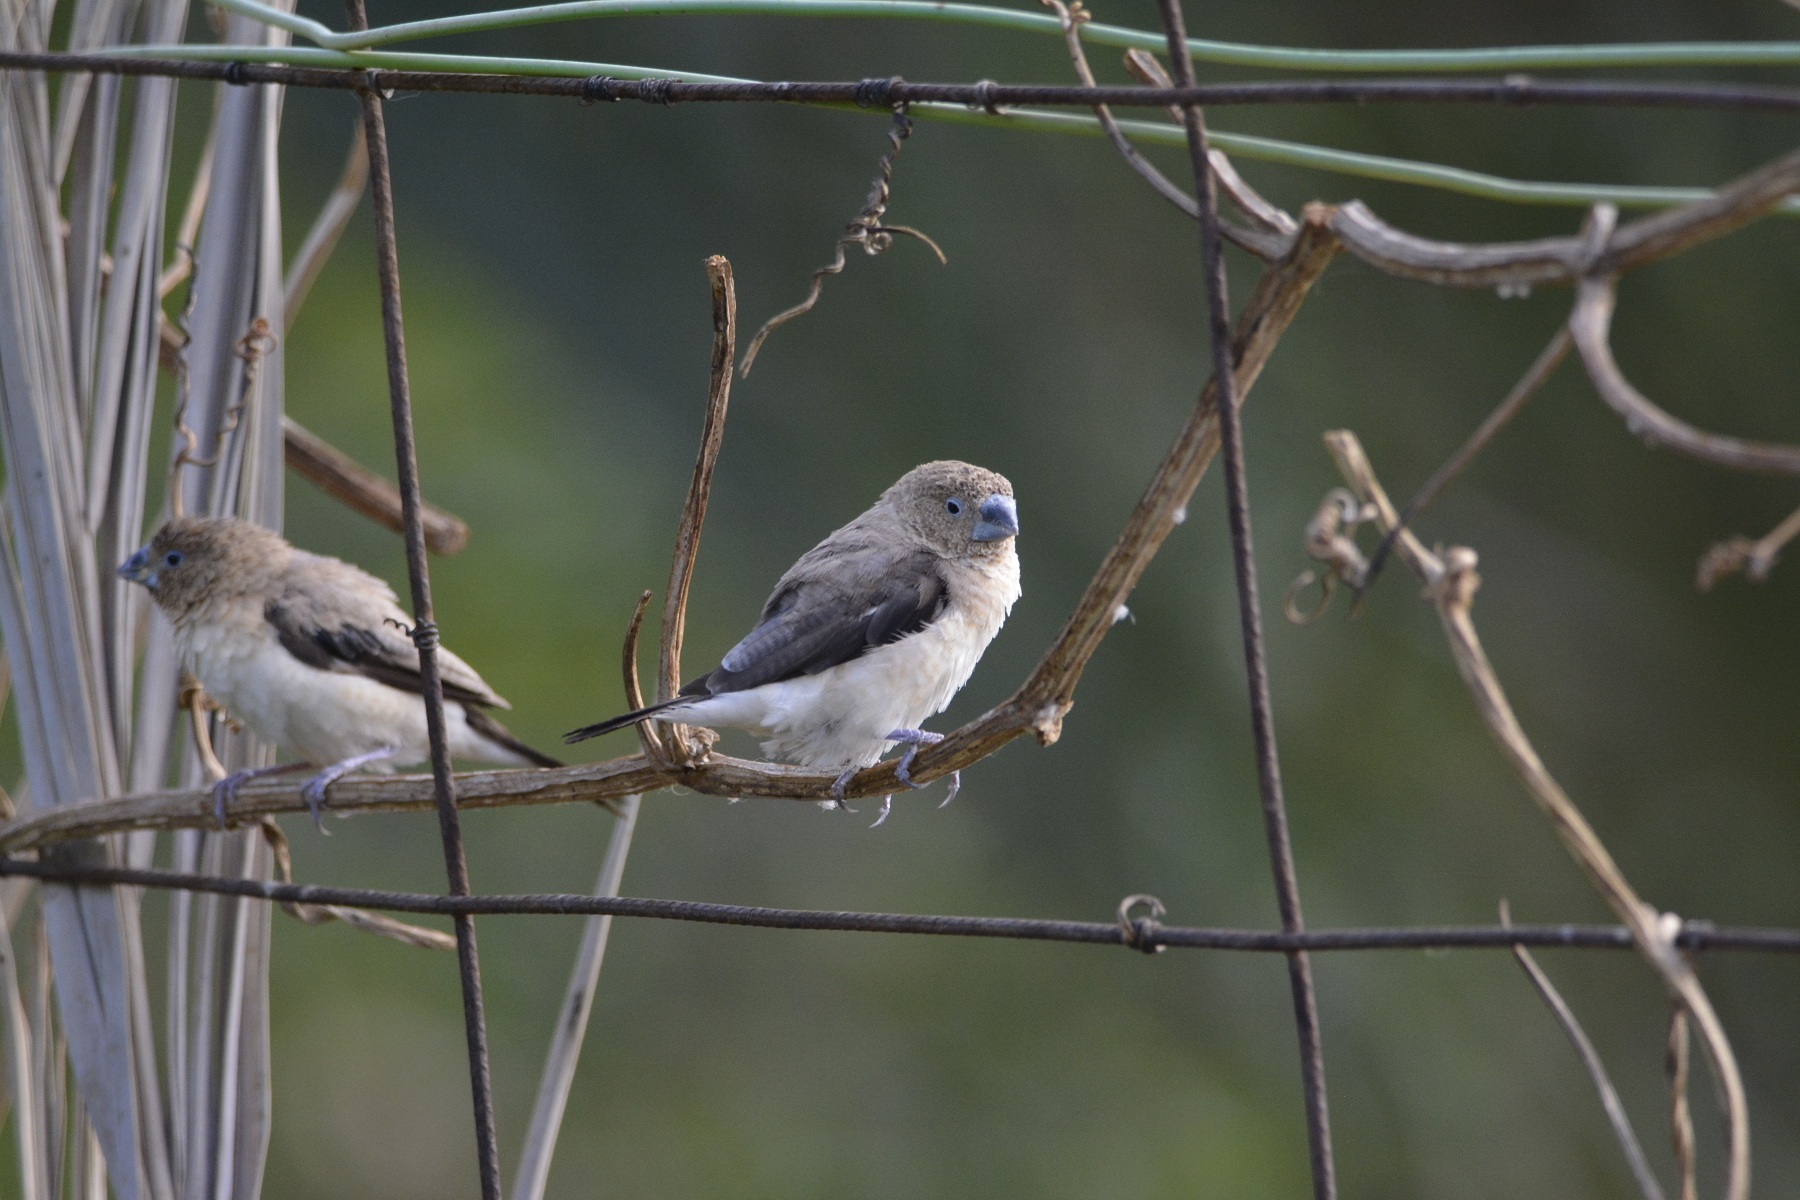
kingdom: Animalia
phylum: Chordata
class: Aves
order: Passeriformes
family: Estrildidae
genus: Euodice
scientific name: Euodice cantans
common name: African silverbill
